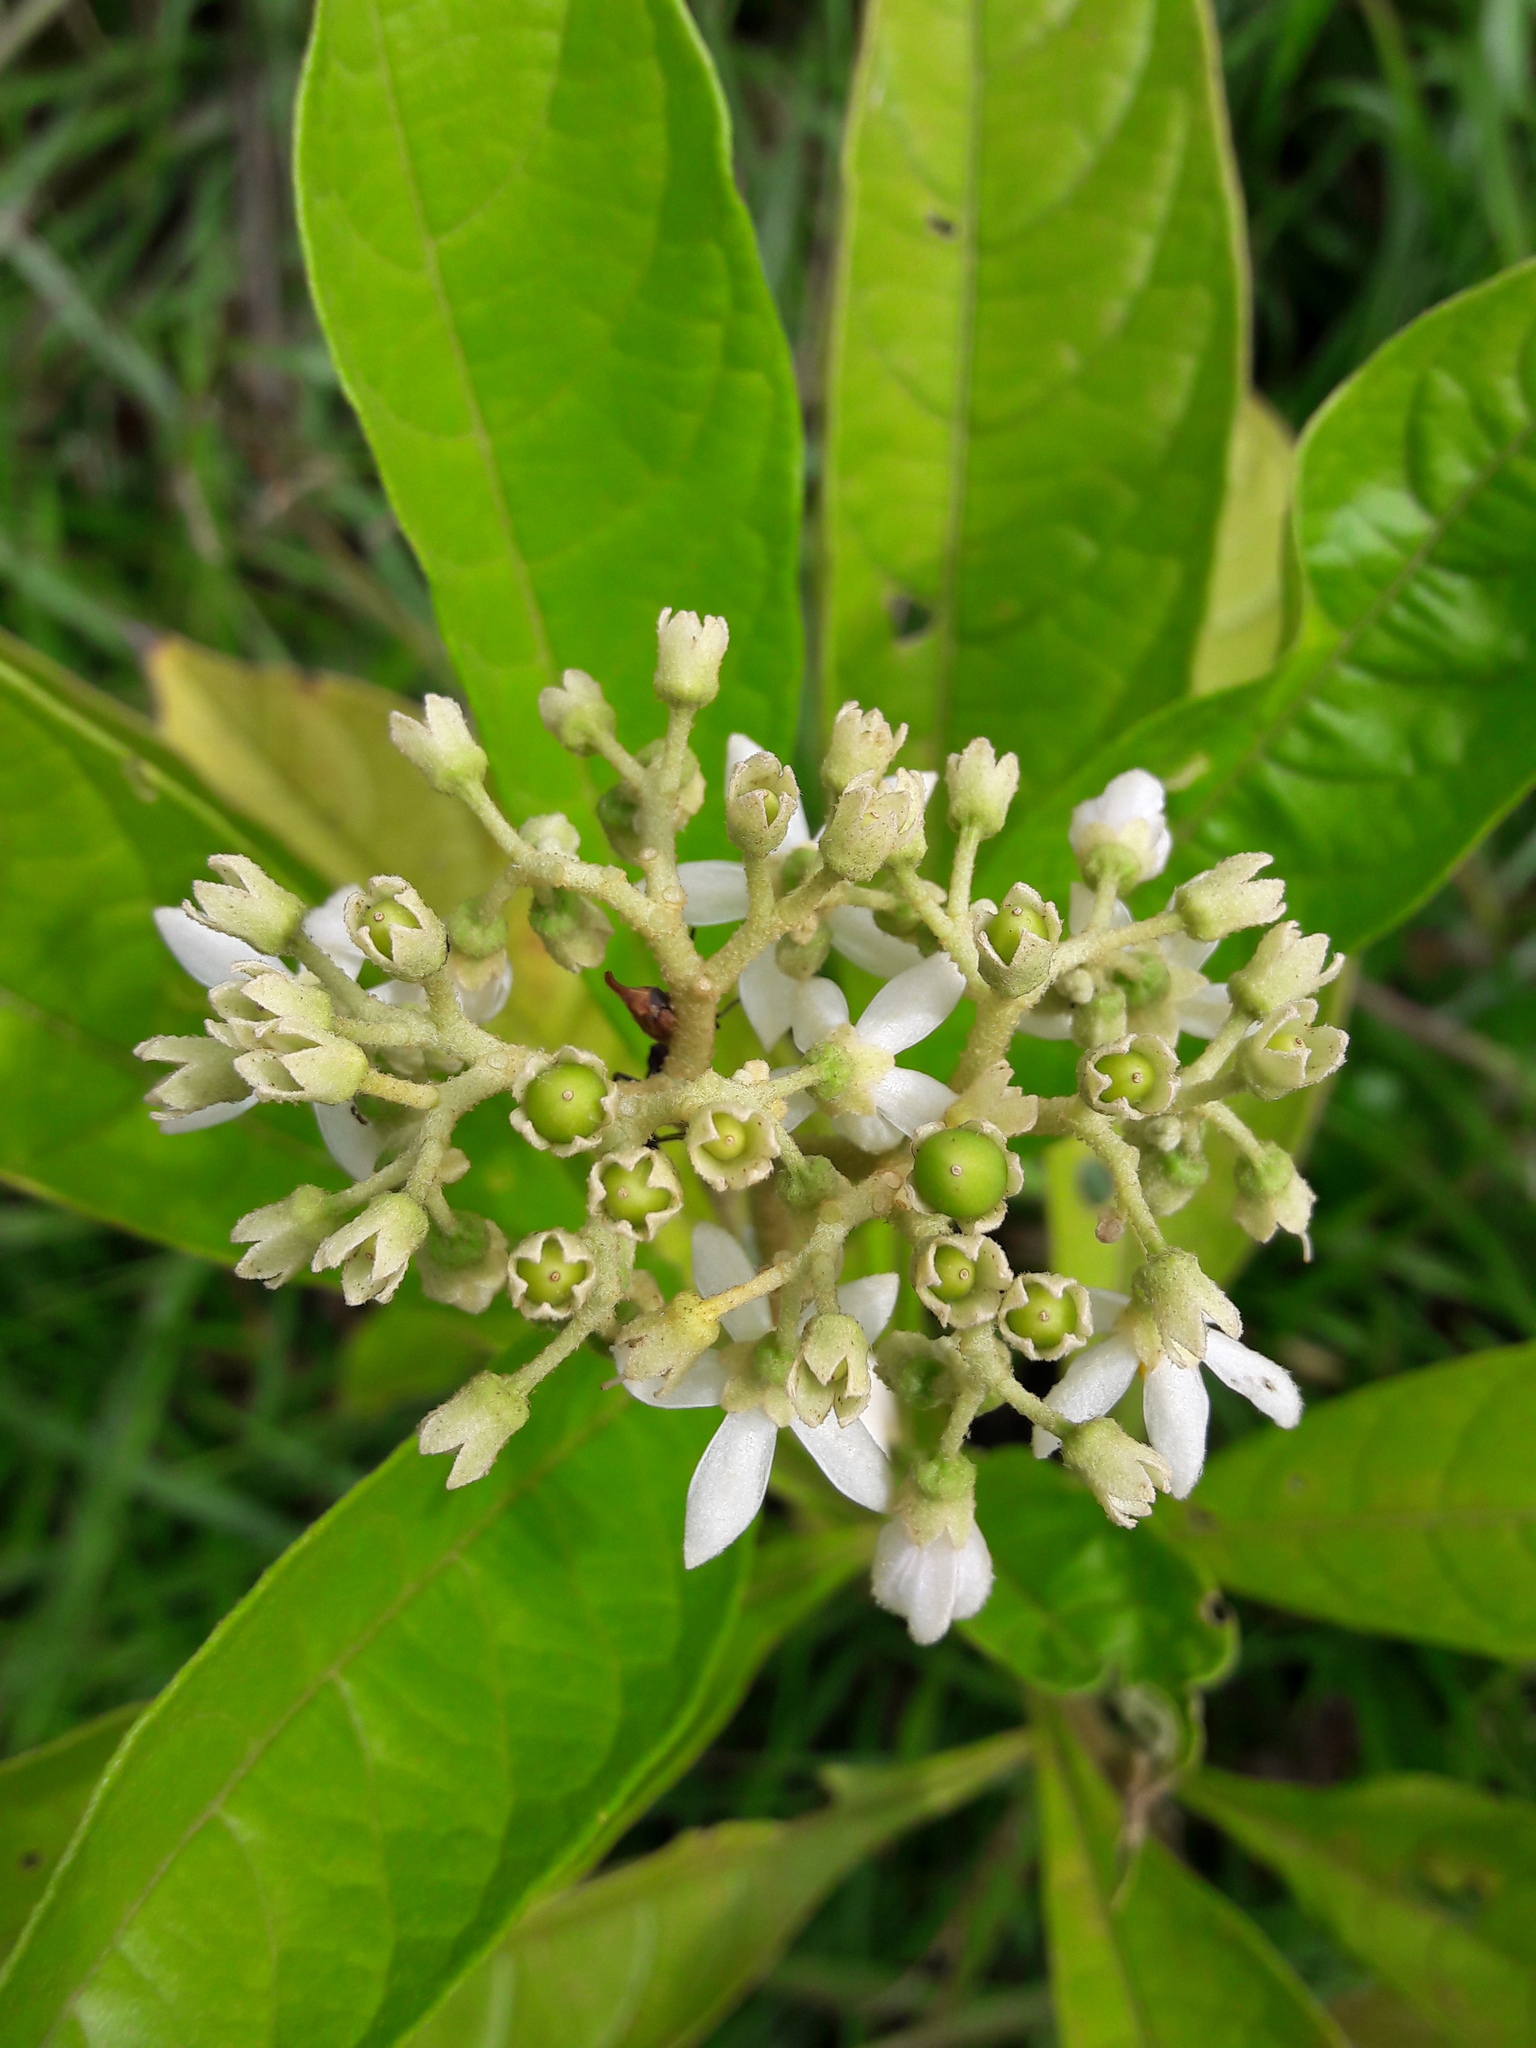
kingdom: Plantae
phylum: Tracheophyta
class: Magnoliopsida
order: Solanales
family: Solanaceae
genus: Solanum
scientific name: Solanum rugosum
